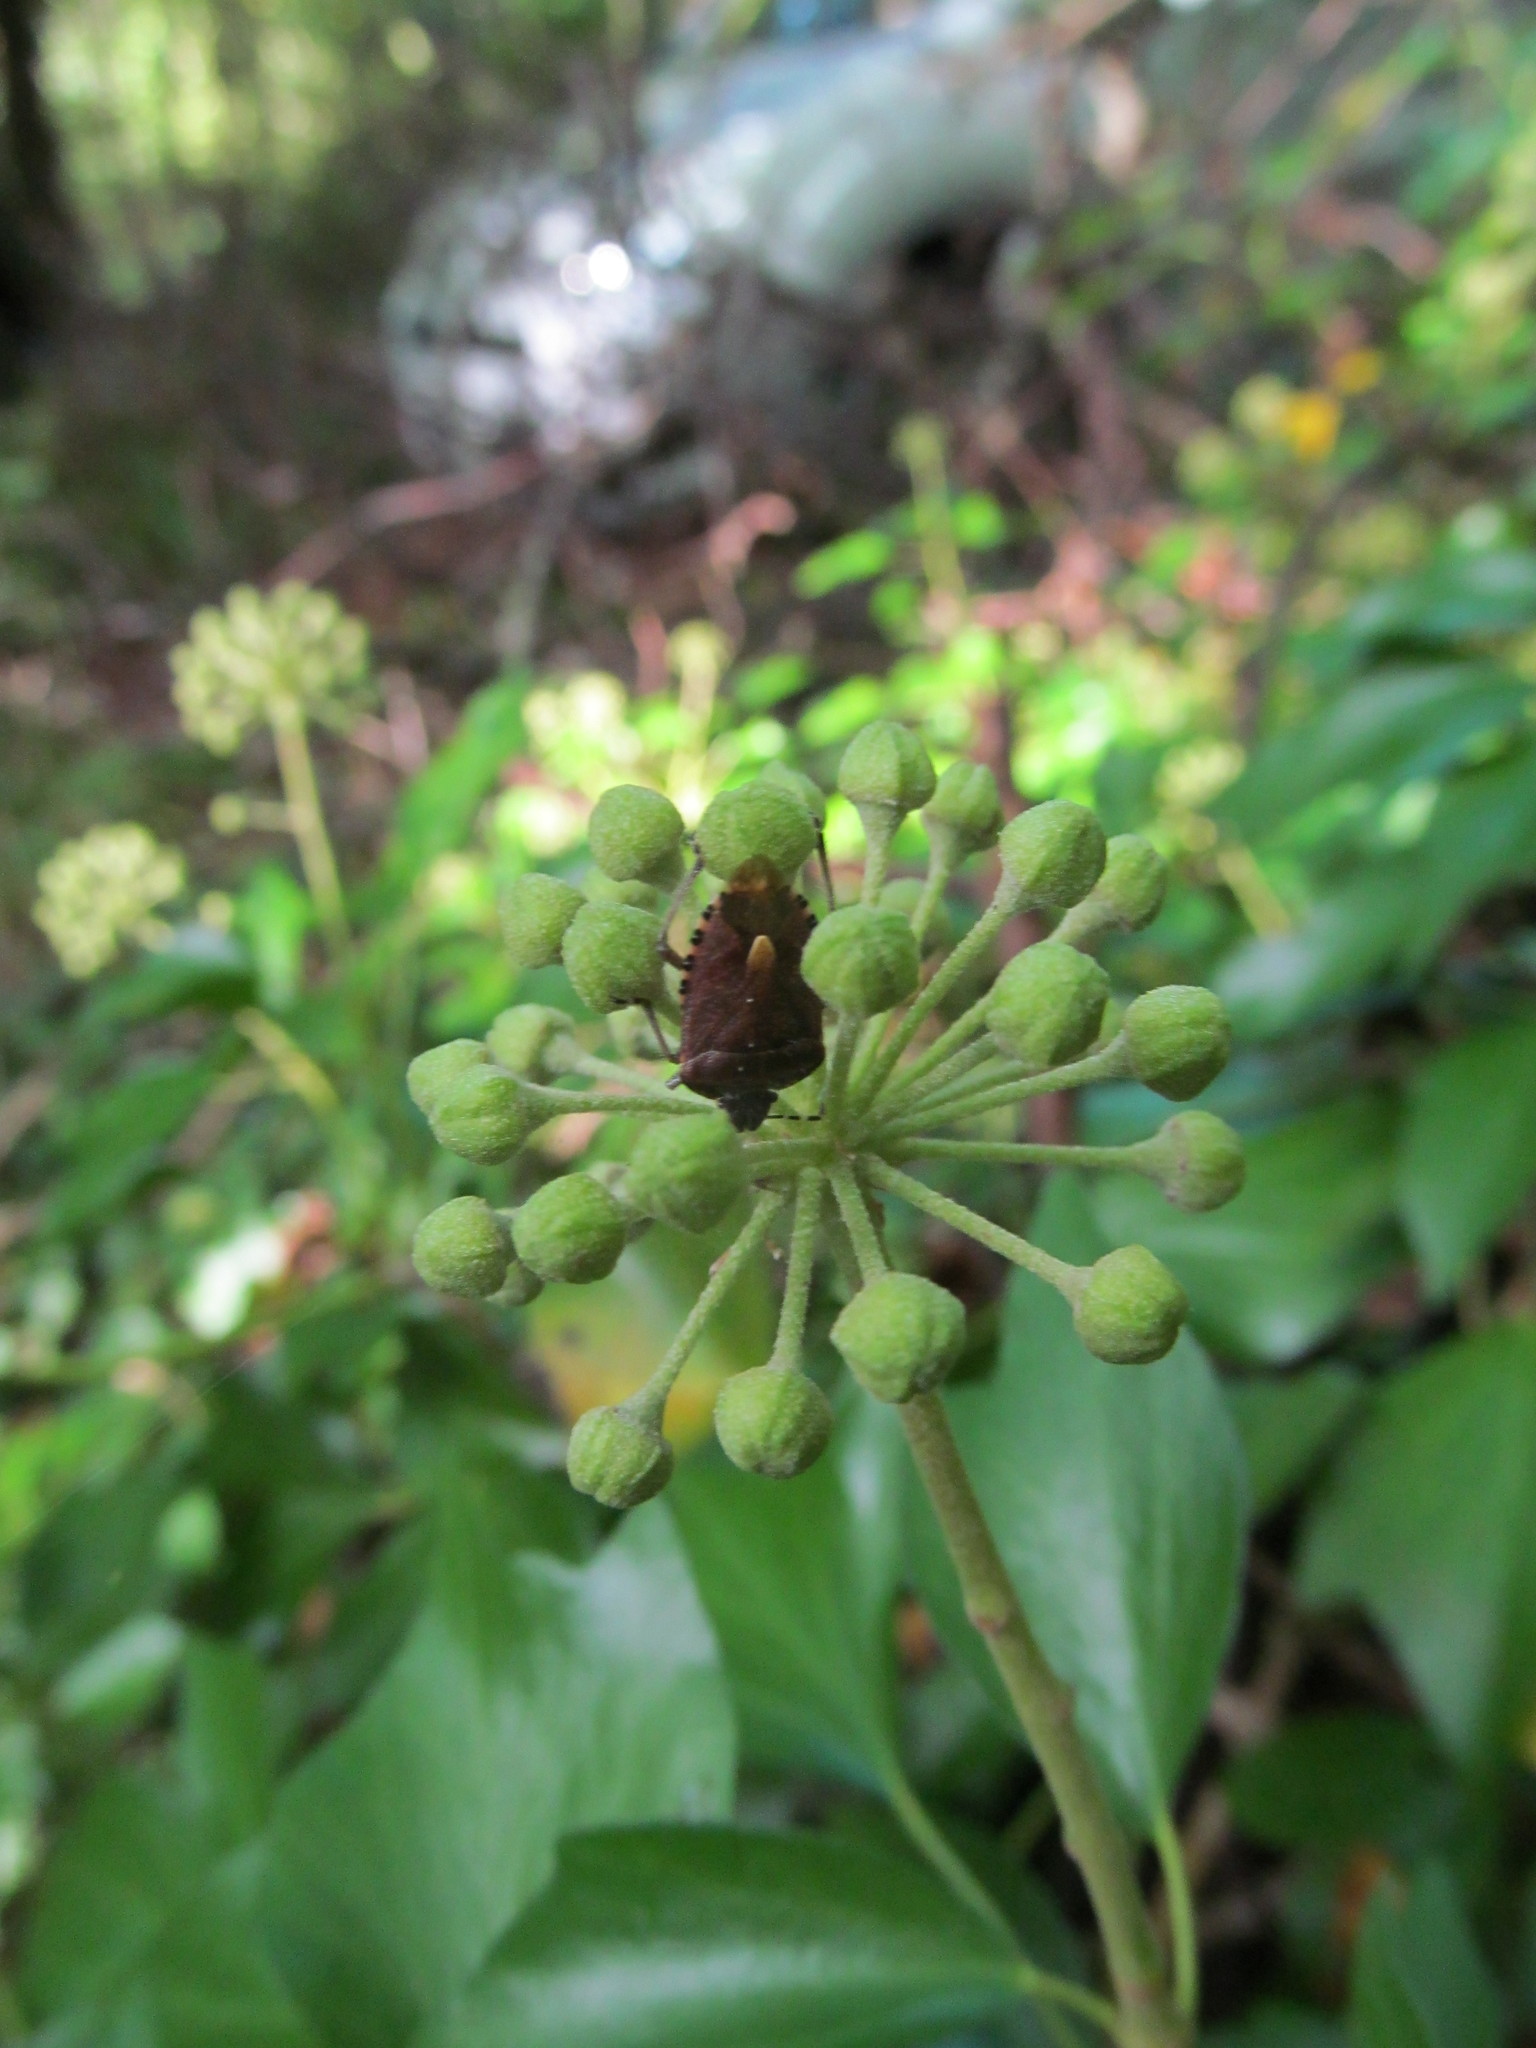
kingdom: Animalia
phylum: Arthropoda
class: Insecta
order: Hemiptera
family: Pentatomidae
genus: Dolycoris
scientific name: Dolycoris baccarum
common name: Sloe bug
